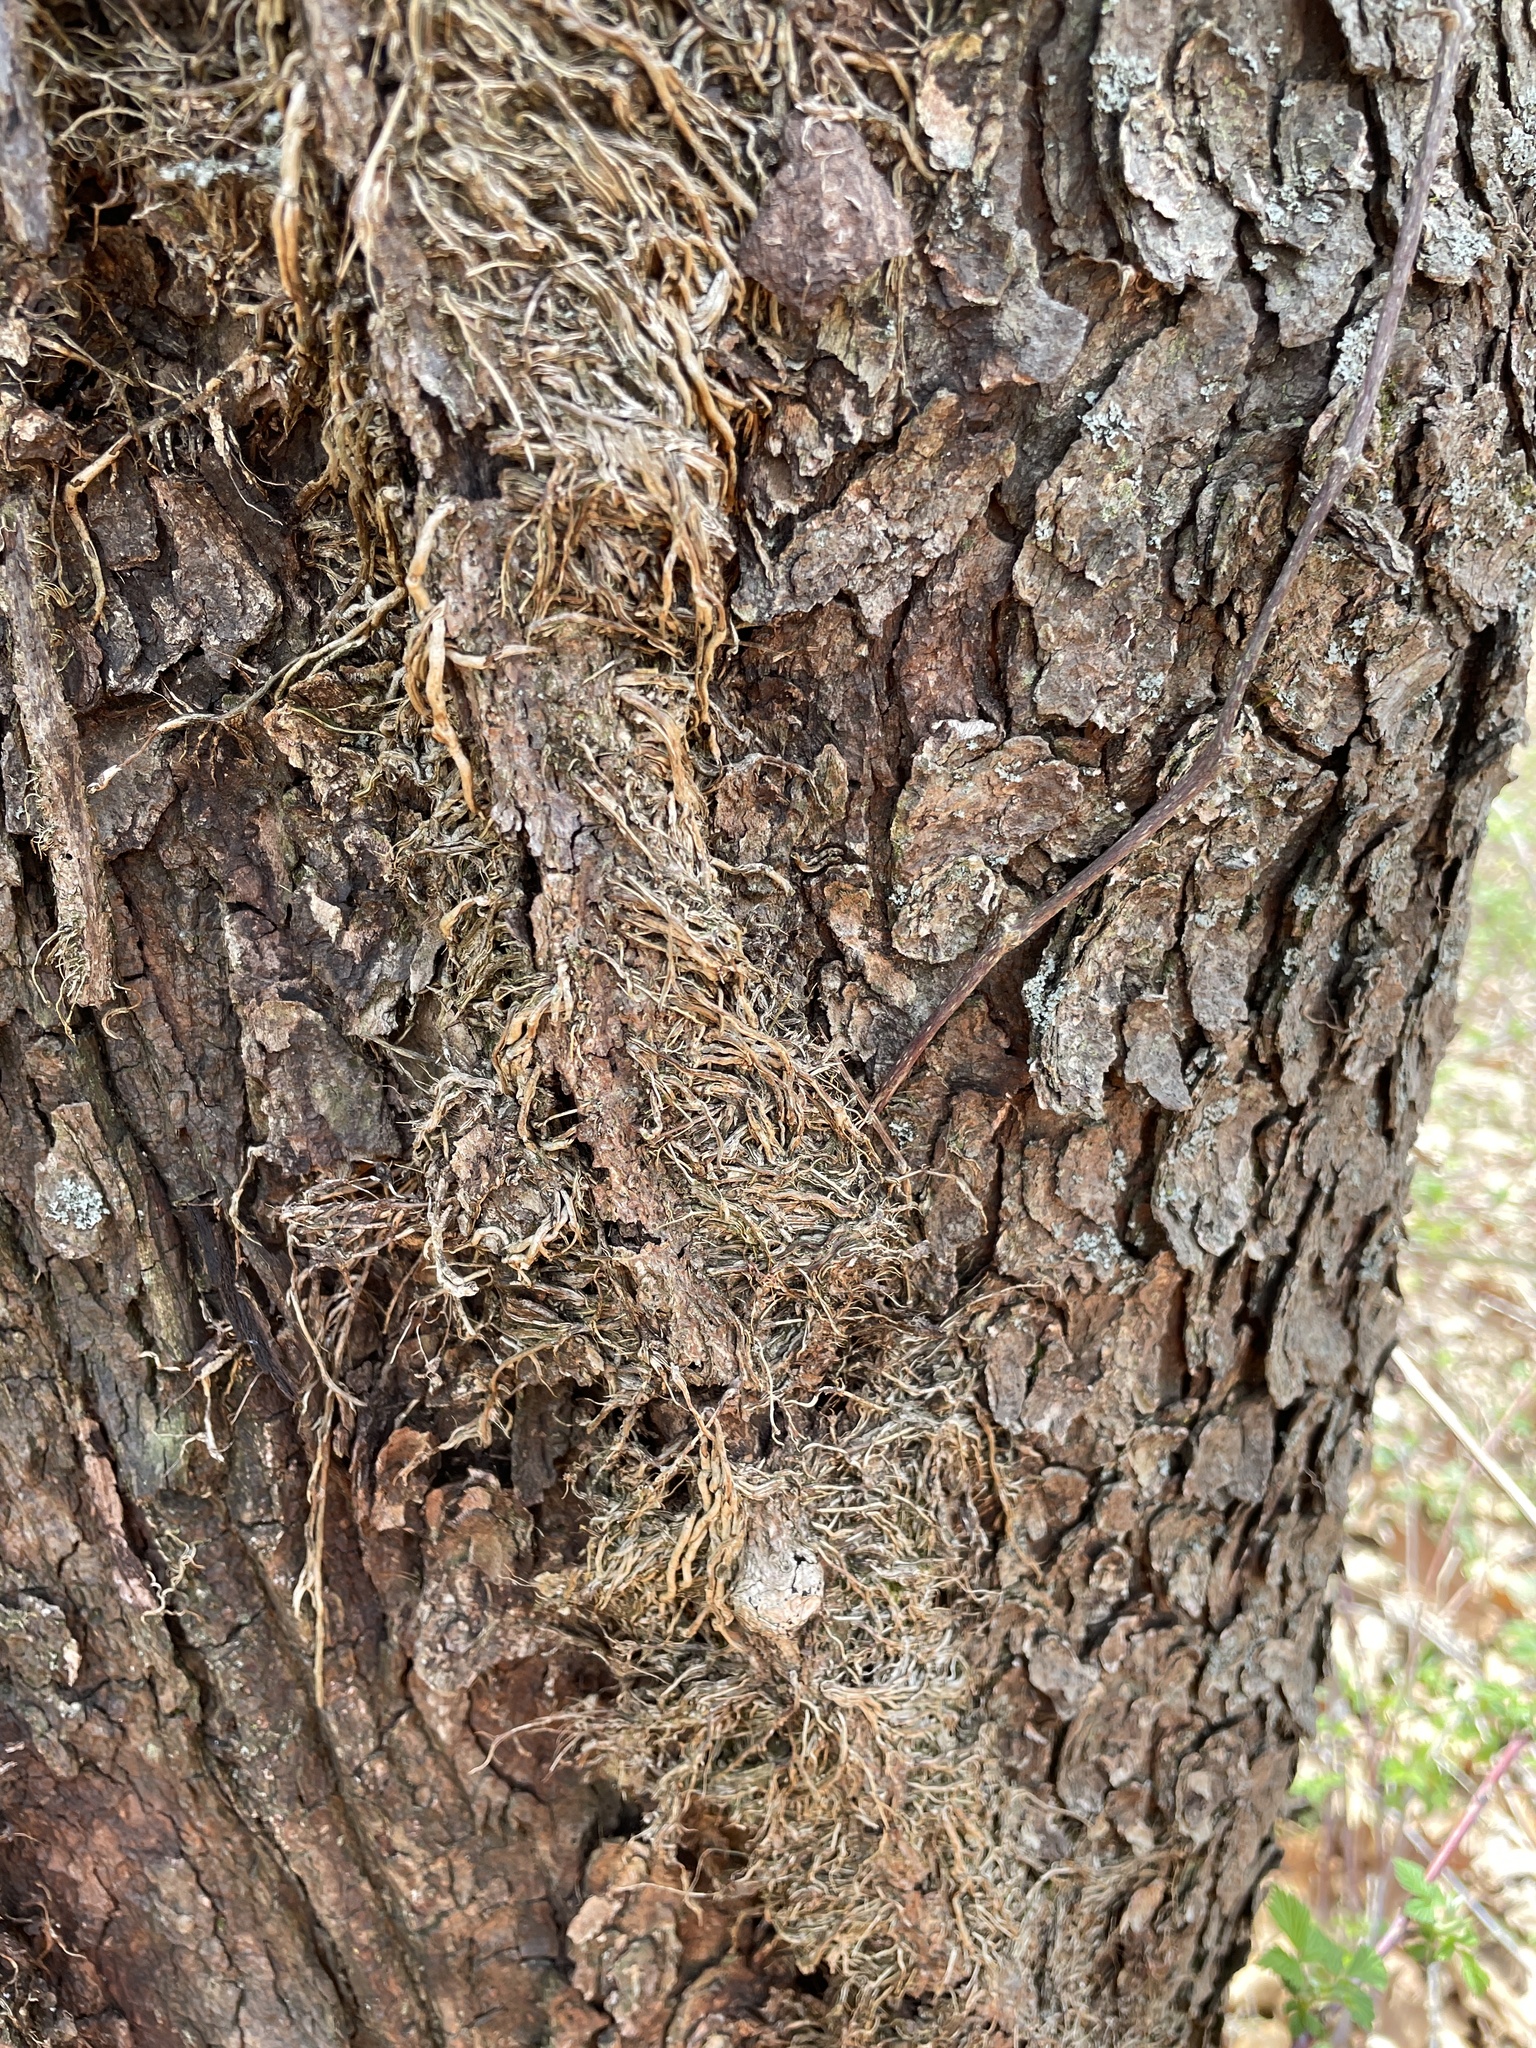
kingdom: Plantae
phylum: Tracheophyta
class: Magnoliopsida
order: Sapindales
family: Anacardiaceae
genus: Toxicodendron
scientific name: Toxicodendron radicans
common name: Poison ivy
